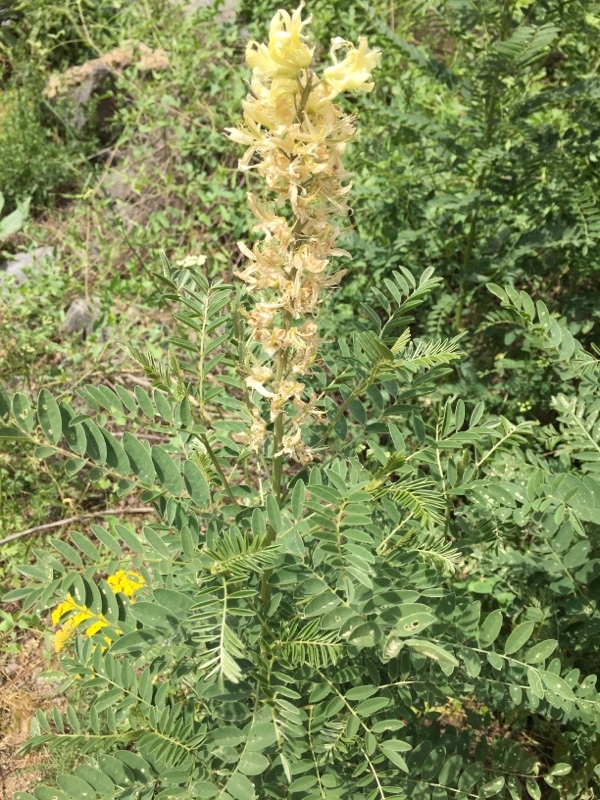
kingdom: Plantae
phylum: Tracheophyta
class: Magnoliopsida
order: Fabales
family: Fabaceae
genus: Sophora
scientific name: Sophora alopecuroides
